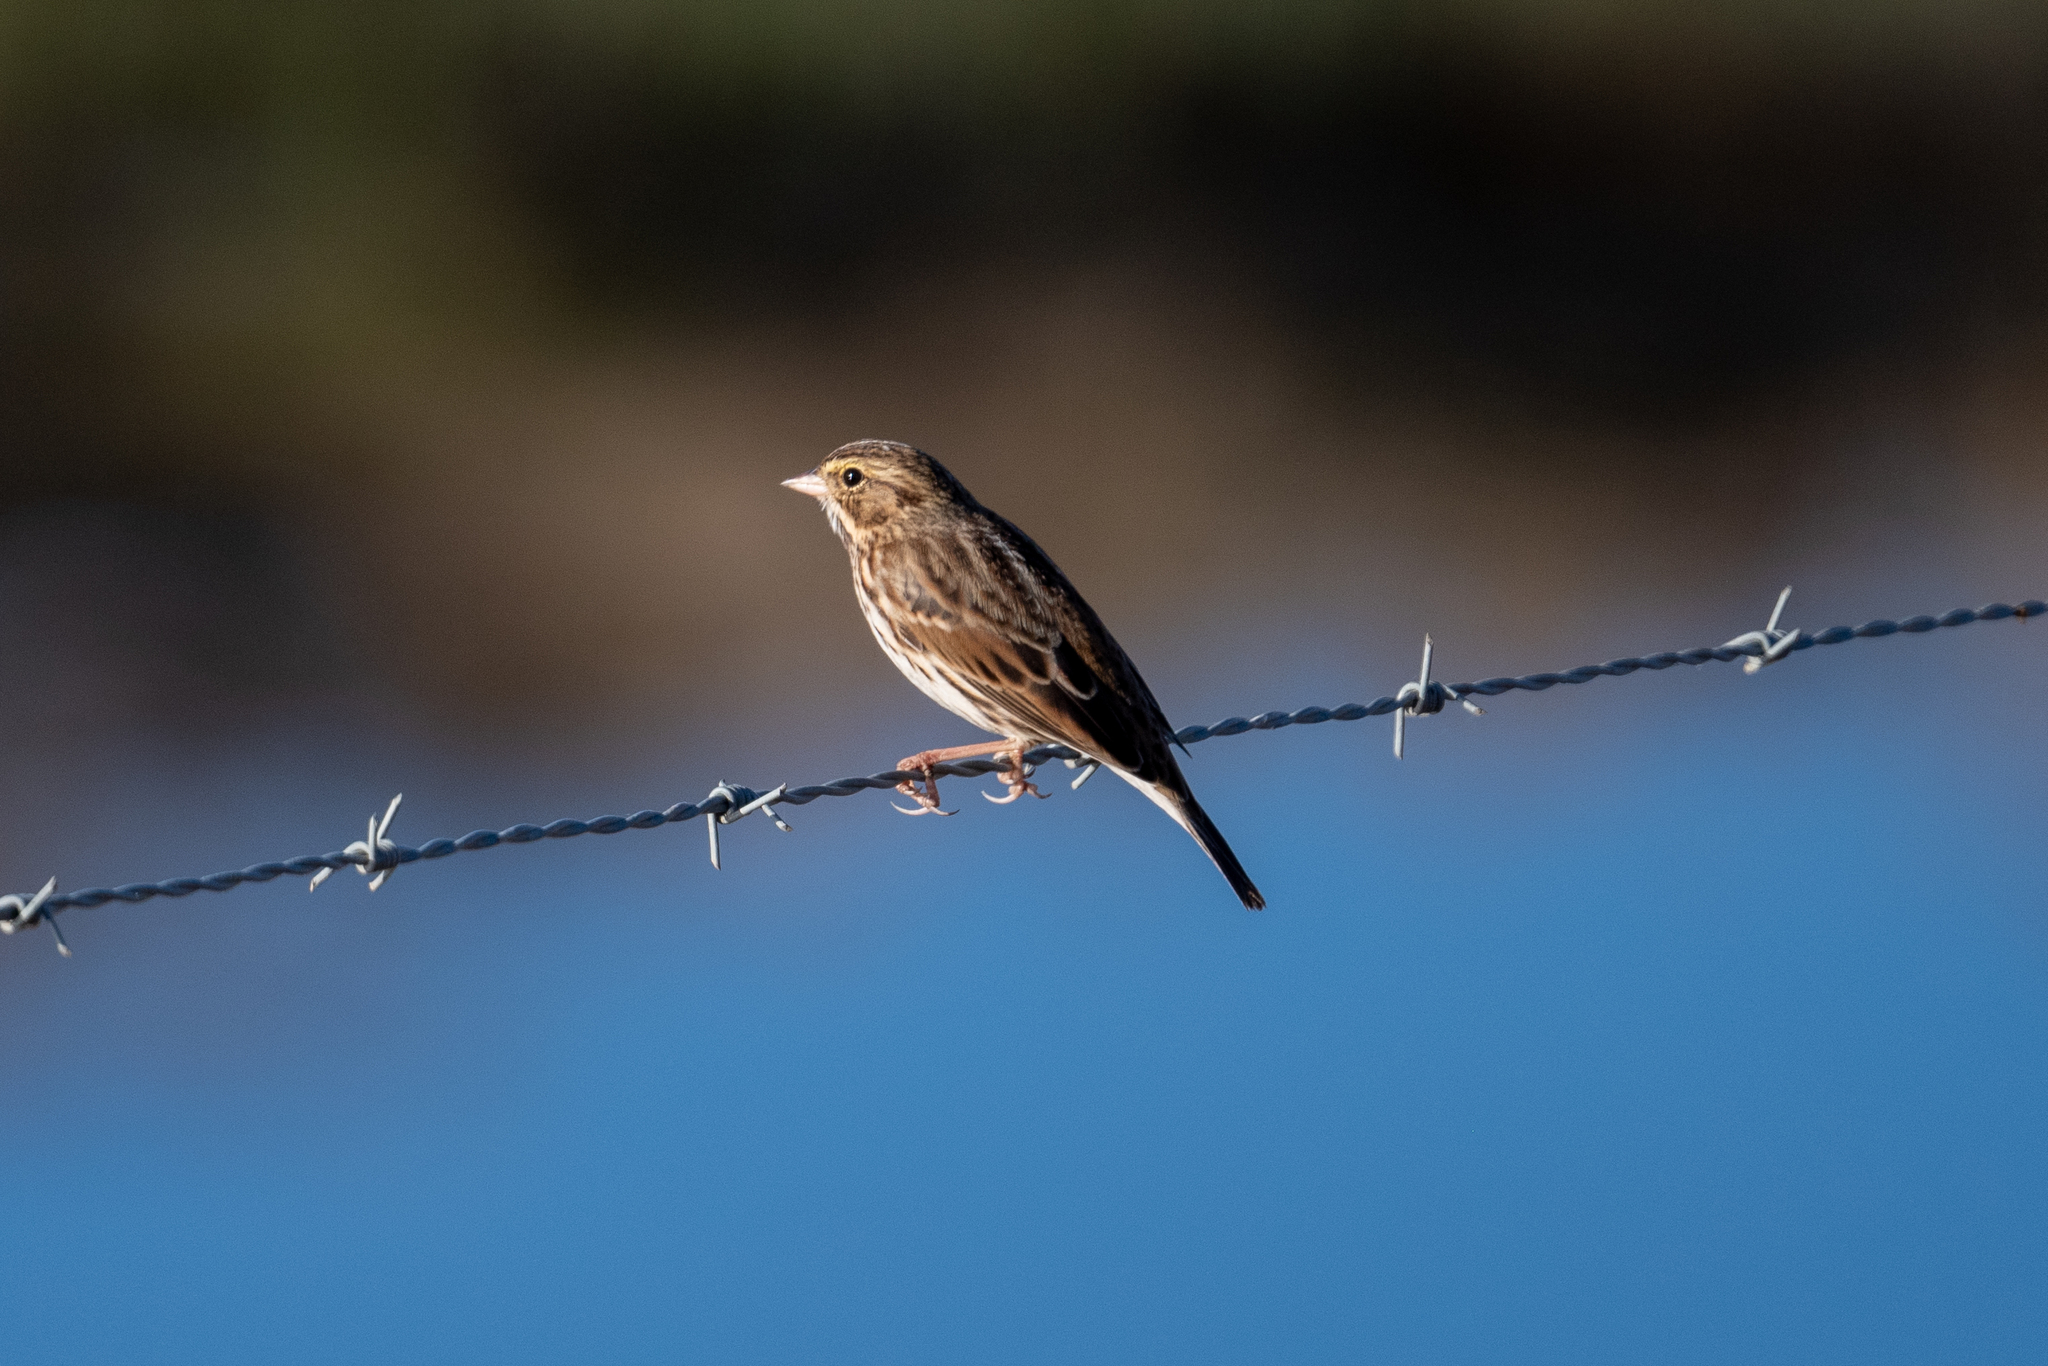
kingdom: Animalia
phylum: Chordata
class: Aves
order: Passeriformes
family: Passerellidae
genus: Passerculus
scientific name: Passerculus sandwichensis
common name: Savannah sparrow
